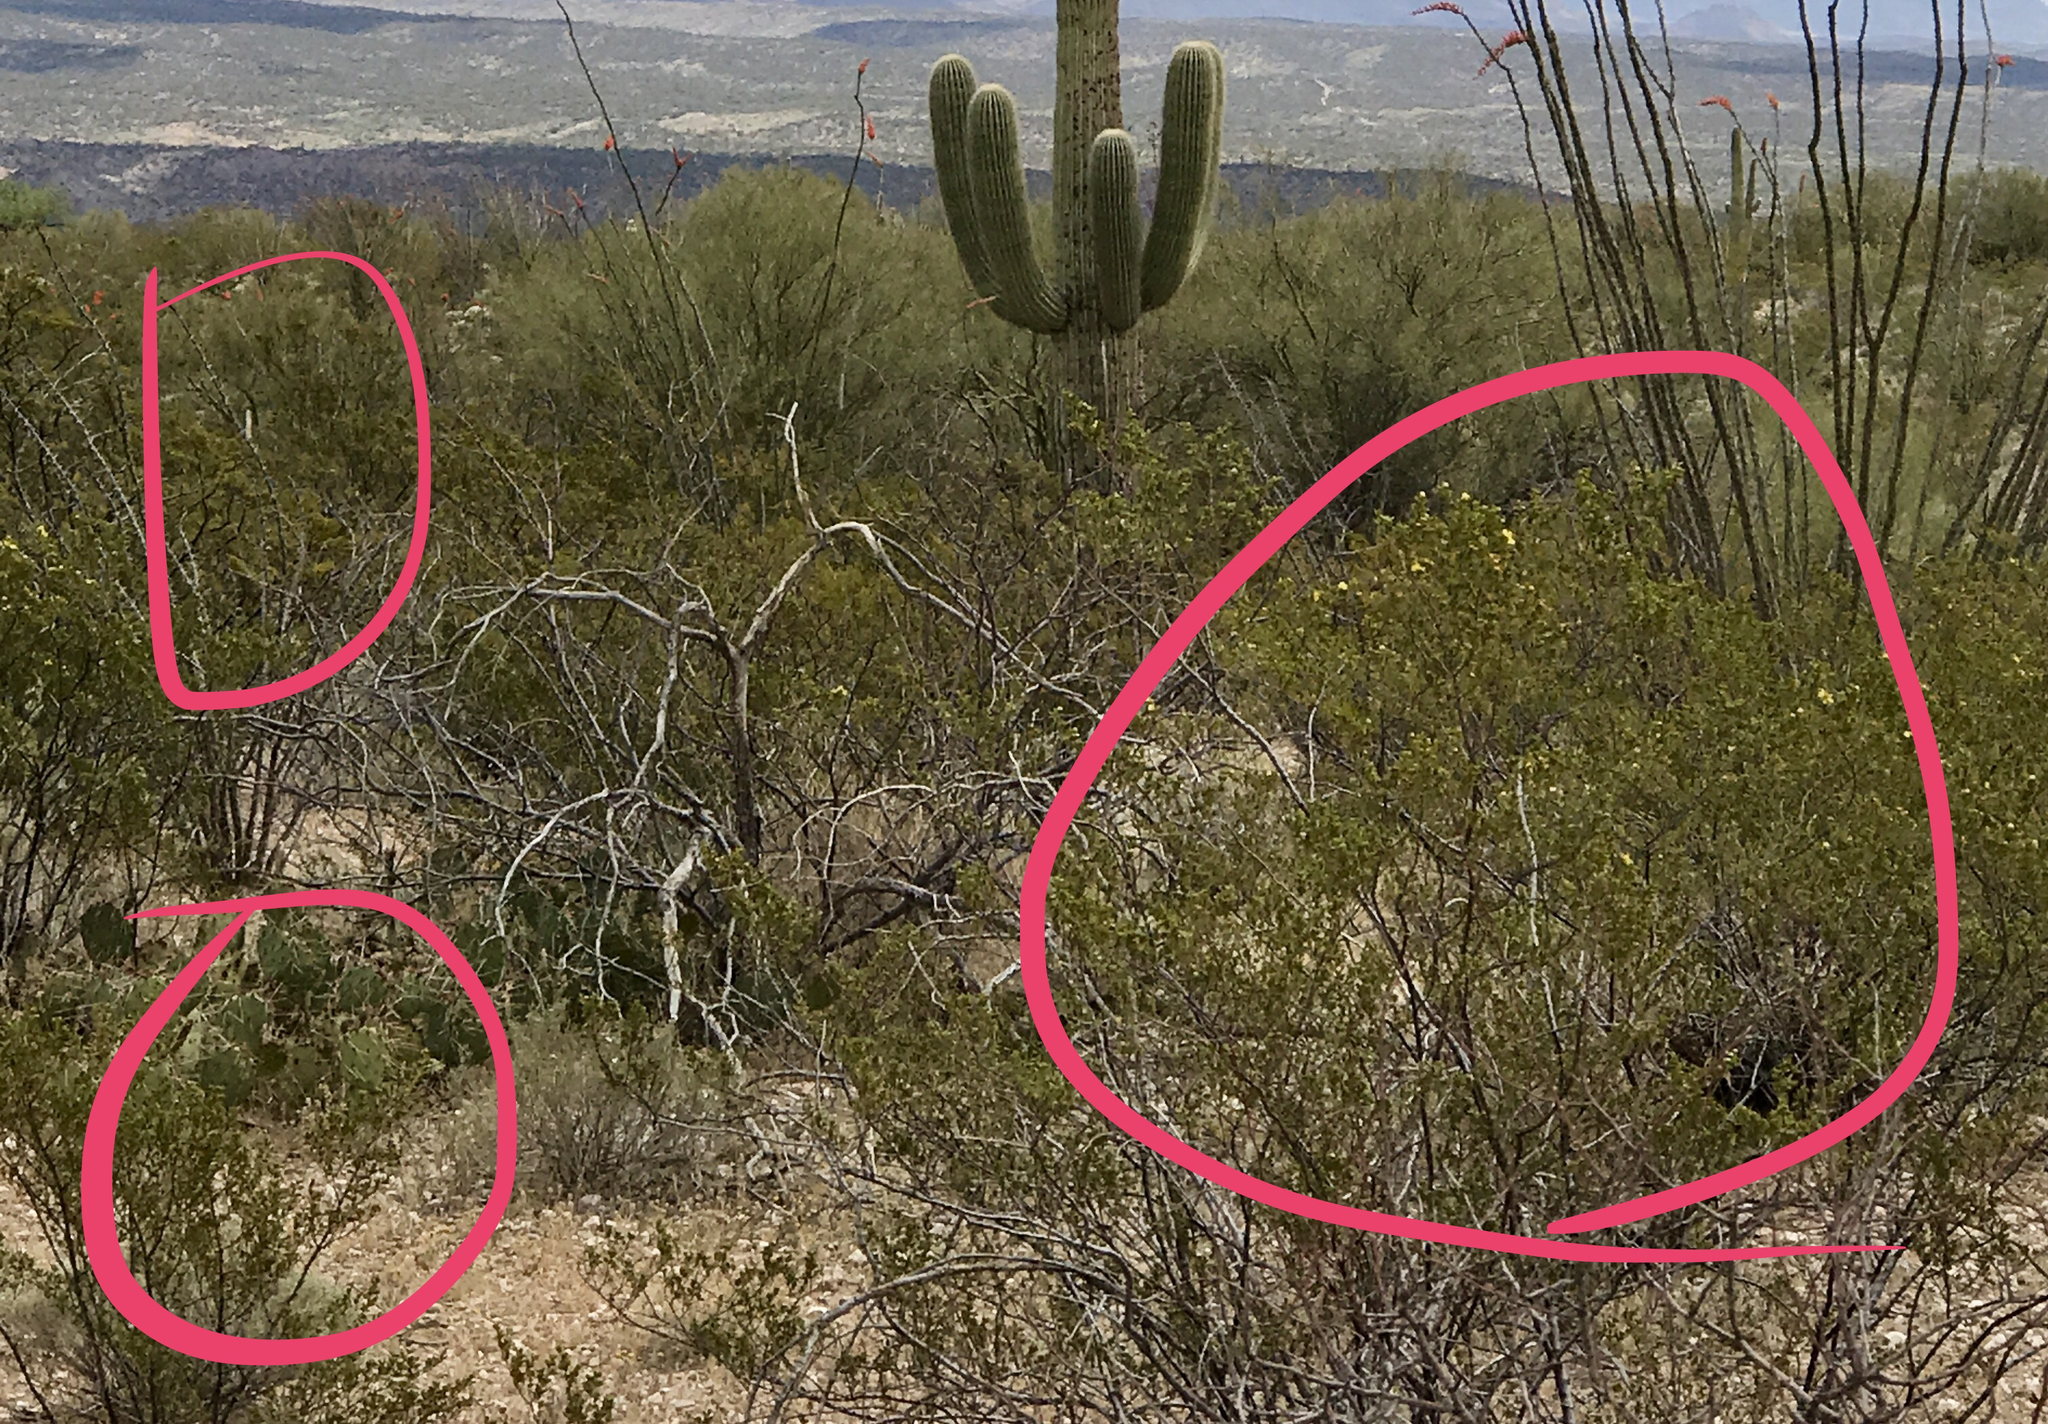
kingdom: Plantae
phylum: Tracheophyta
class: Magnoliopsida
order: Zygophyllales
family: Zygophyllaceae
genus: Larrea
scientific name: Larrea tridentata
